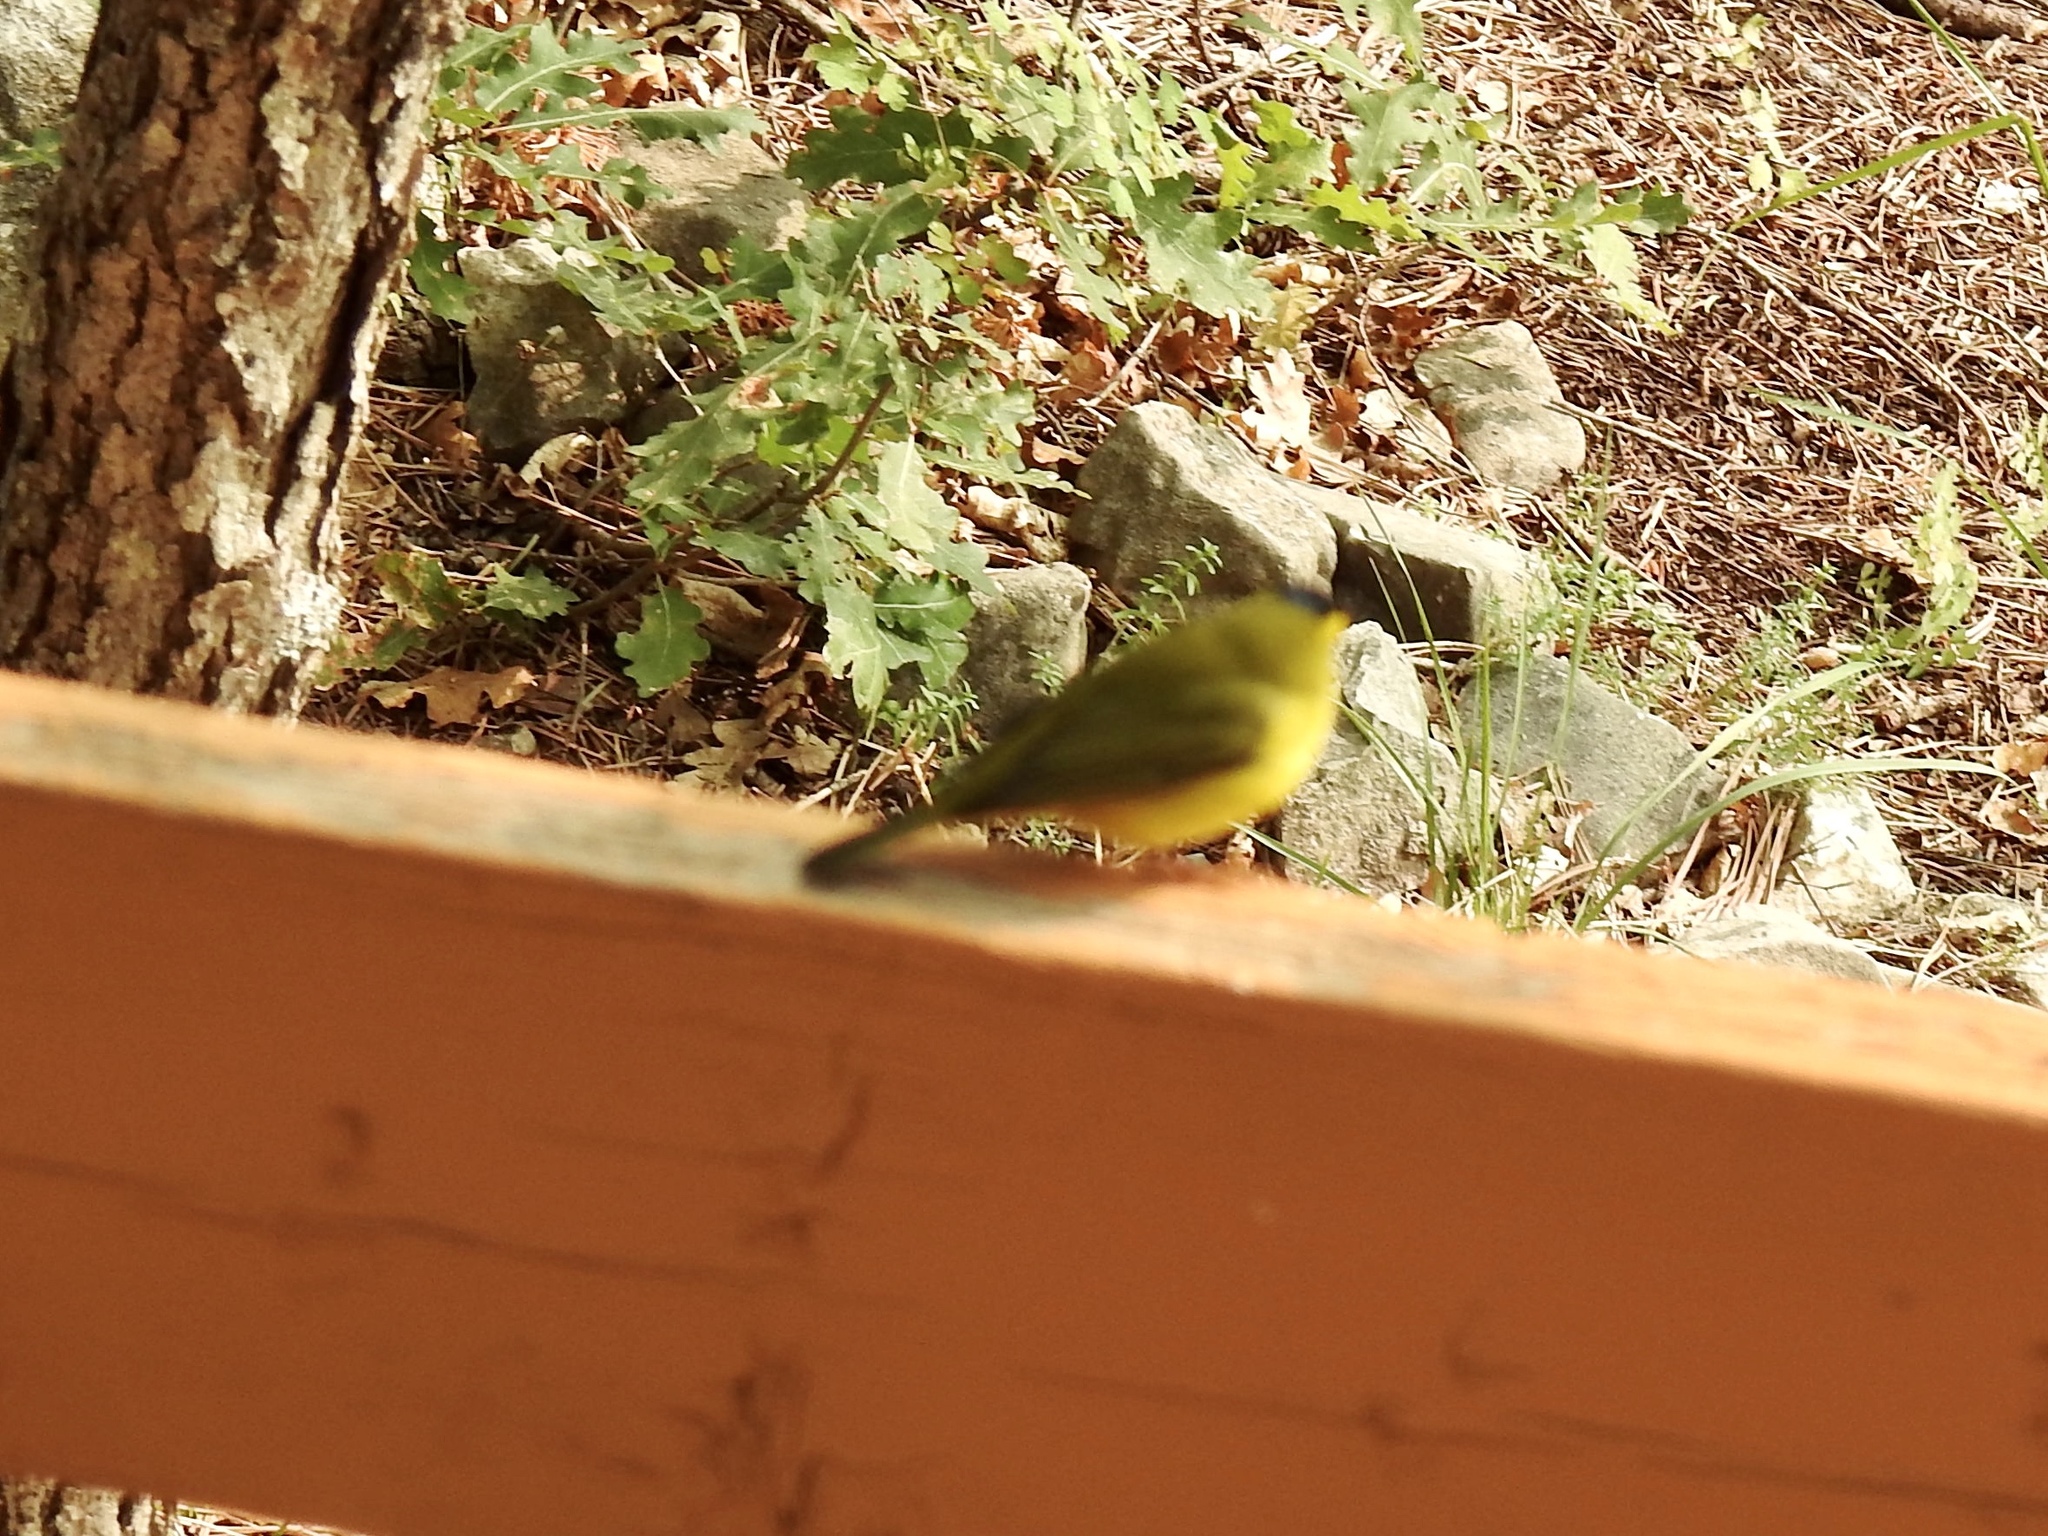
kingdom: Animalia
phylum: Chordata
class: Aves
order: Passeriformes
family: Parulidae
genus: Cardellina
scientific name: Cardellina pusilla
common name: Wilson's warbler
